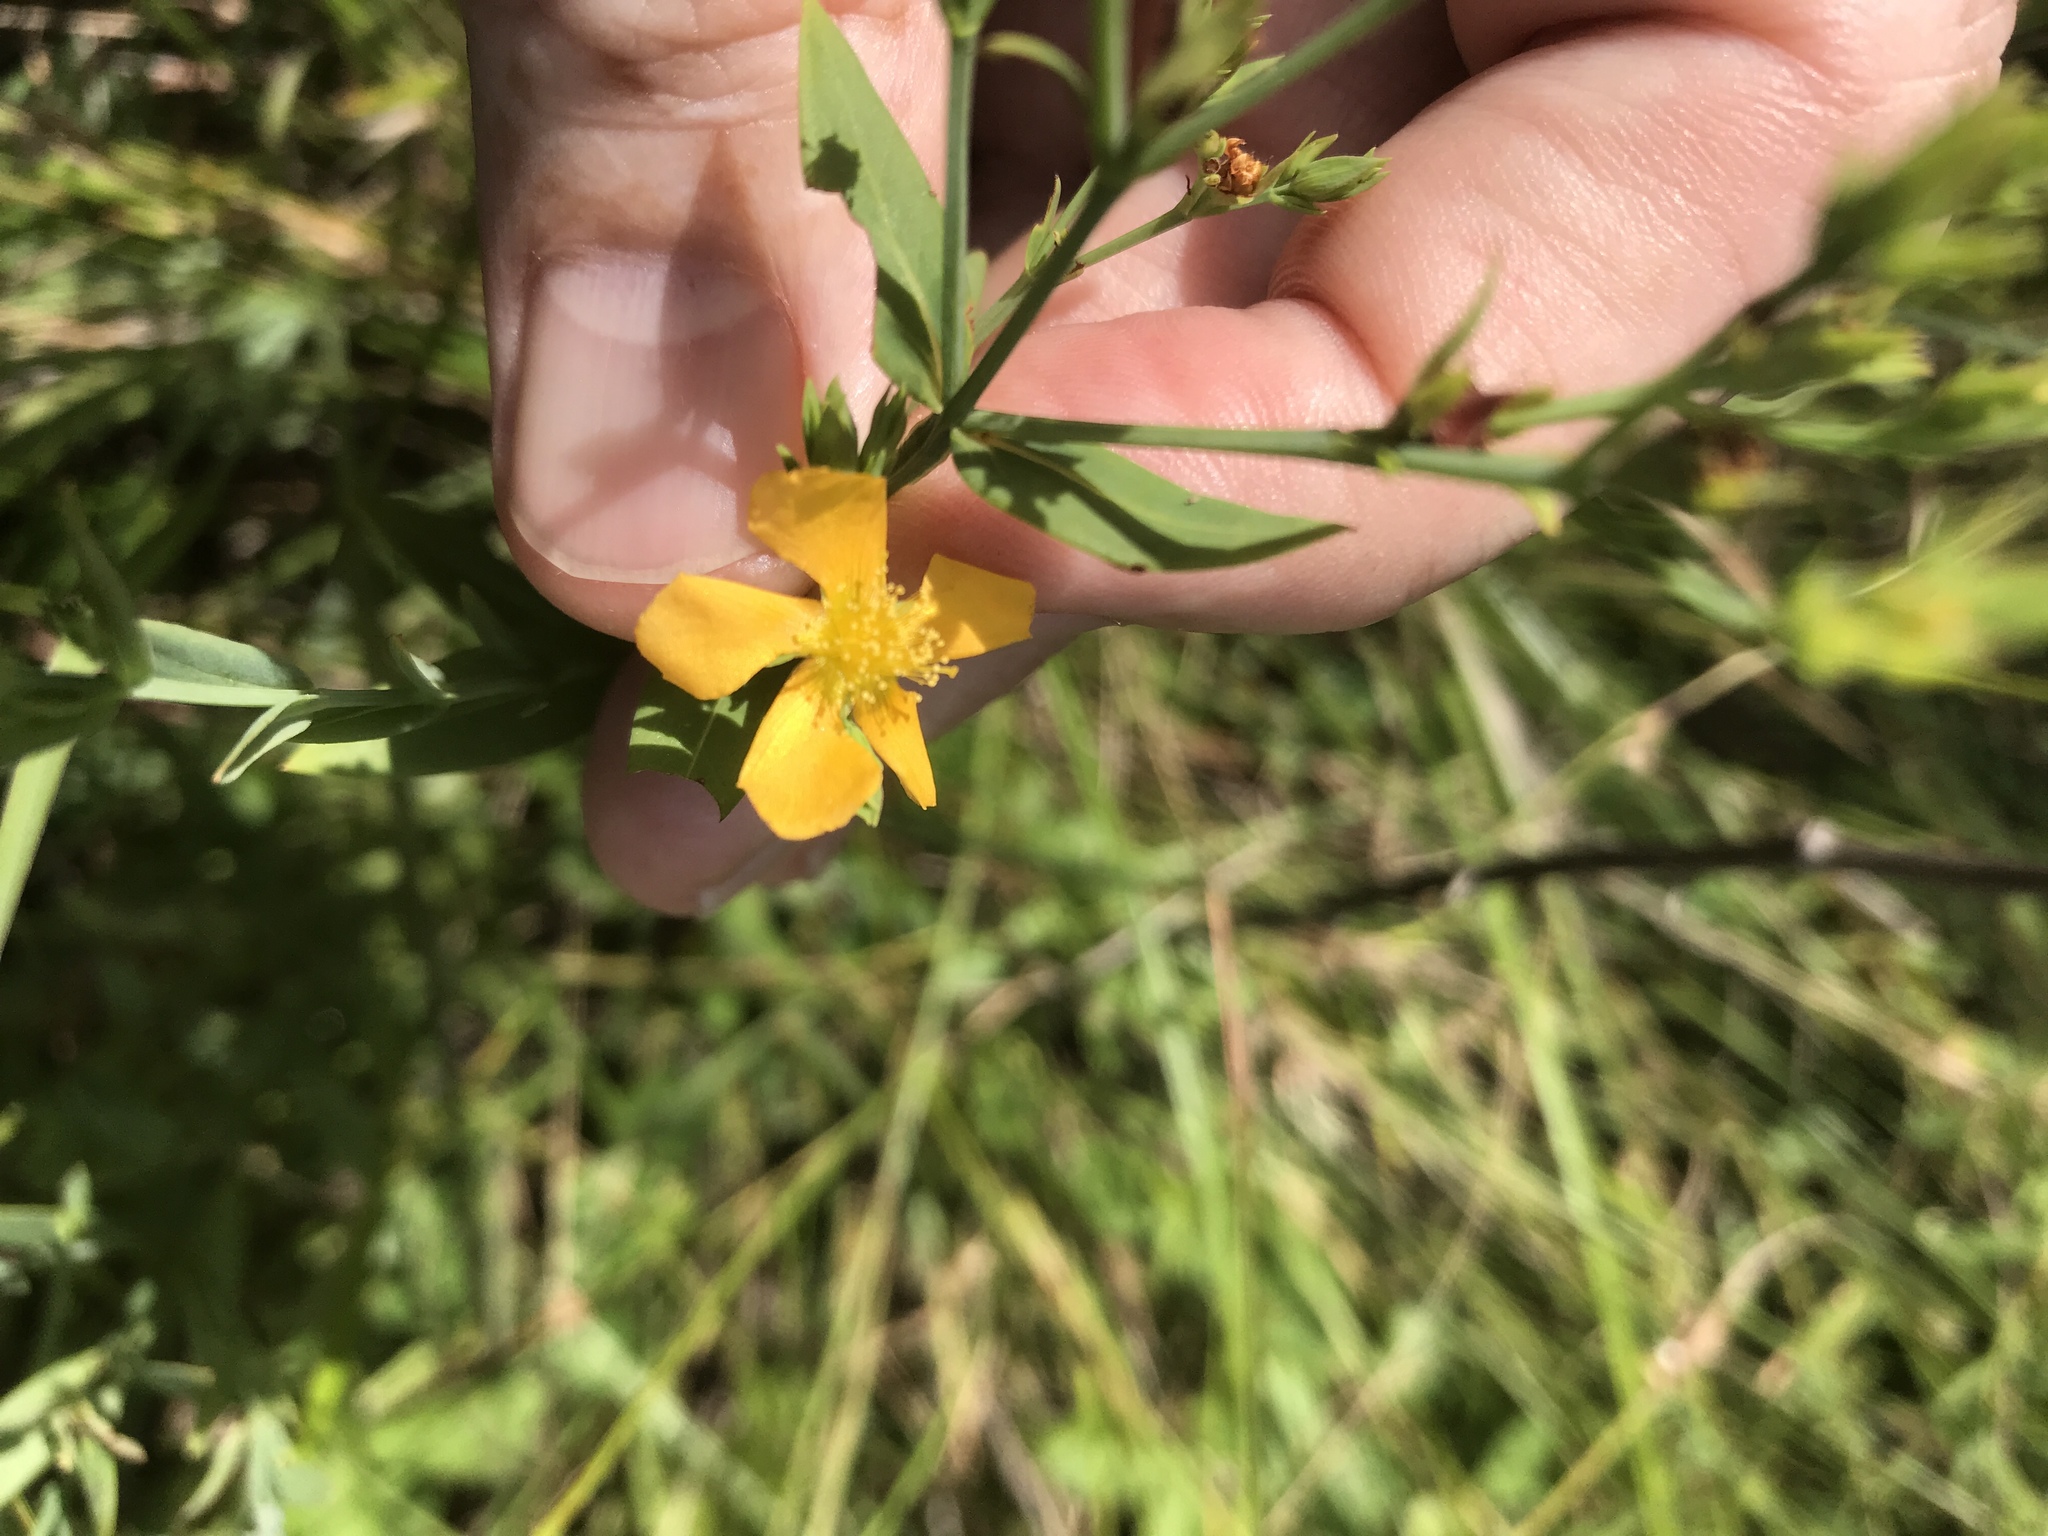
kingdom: Plantae
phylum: Tracheophyta
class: Magnoliopsida
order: Malpighiales
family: Hypericaceae
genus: Hypericum
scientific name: Hypericum virgatum
